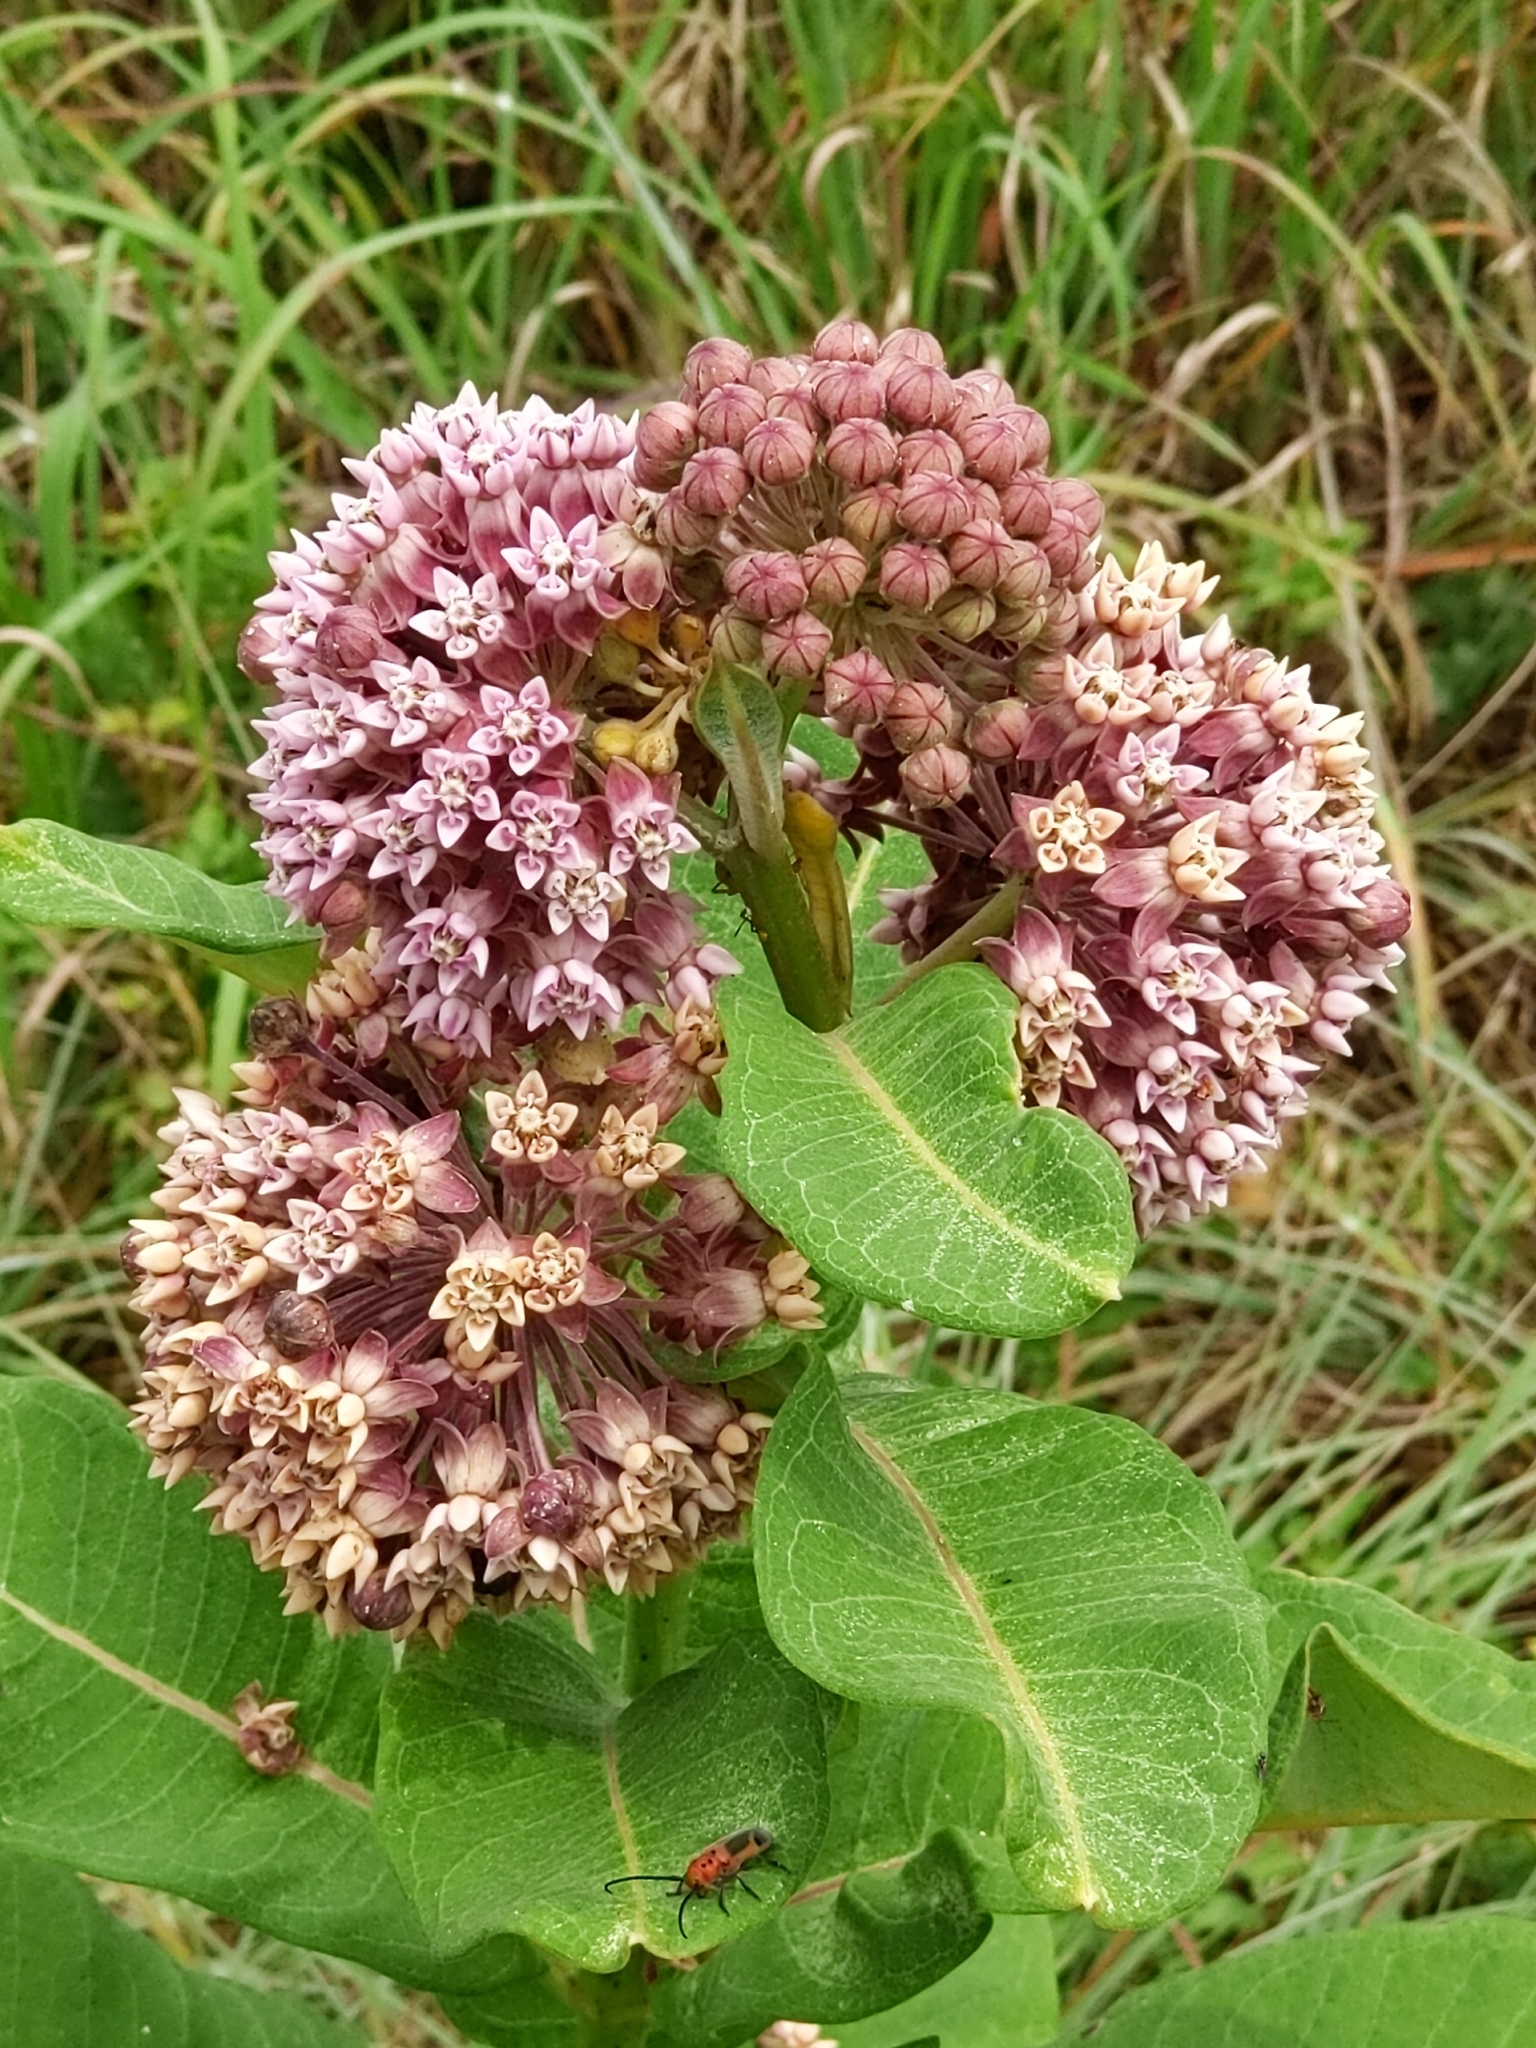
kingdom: Plantae
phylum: Tracheophyta
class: Magnoliopsida
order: Gentianales
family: Apocynaceae
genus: Asclepias
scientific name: Asclepias syriaca
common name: Common milkweed
